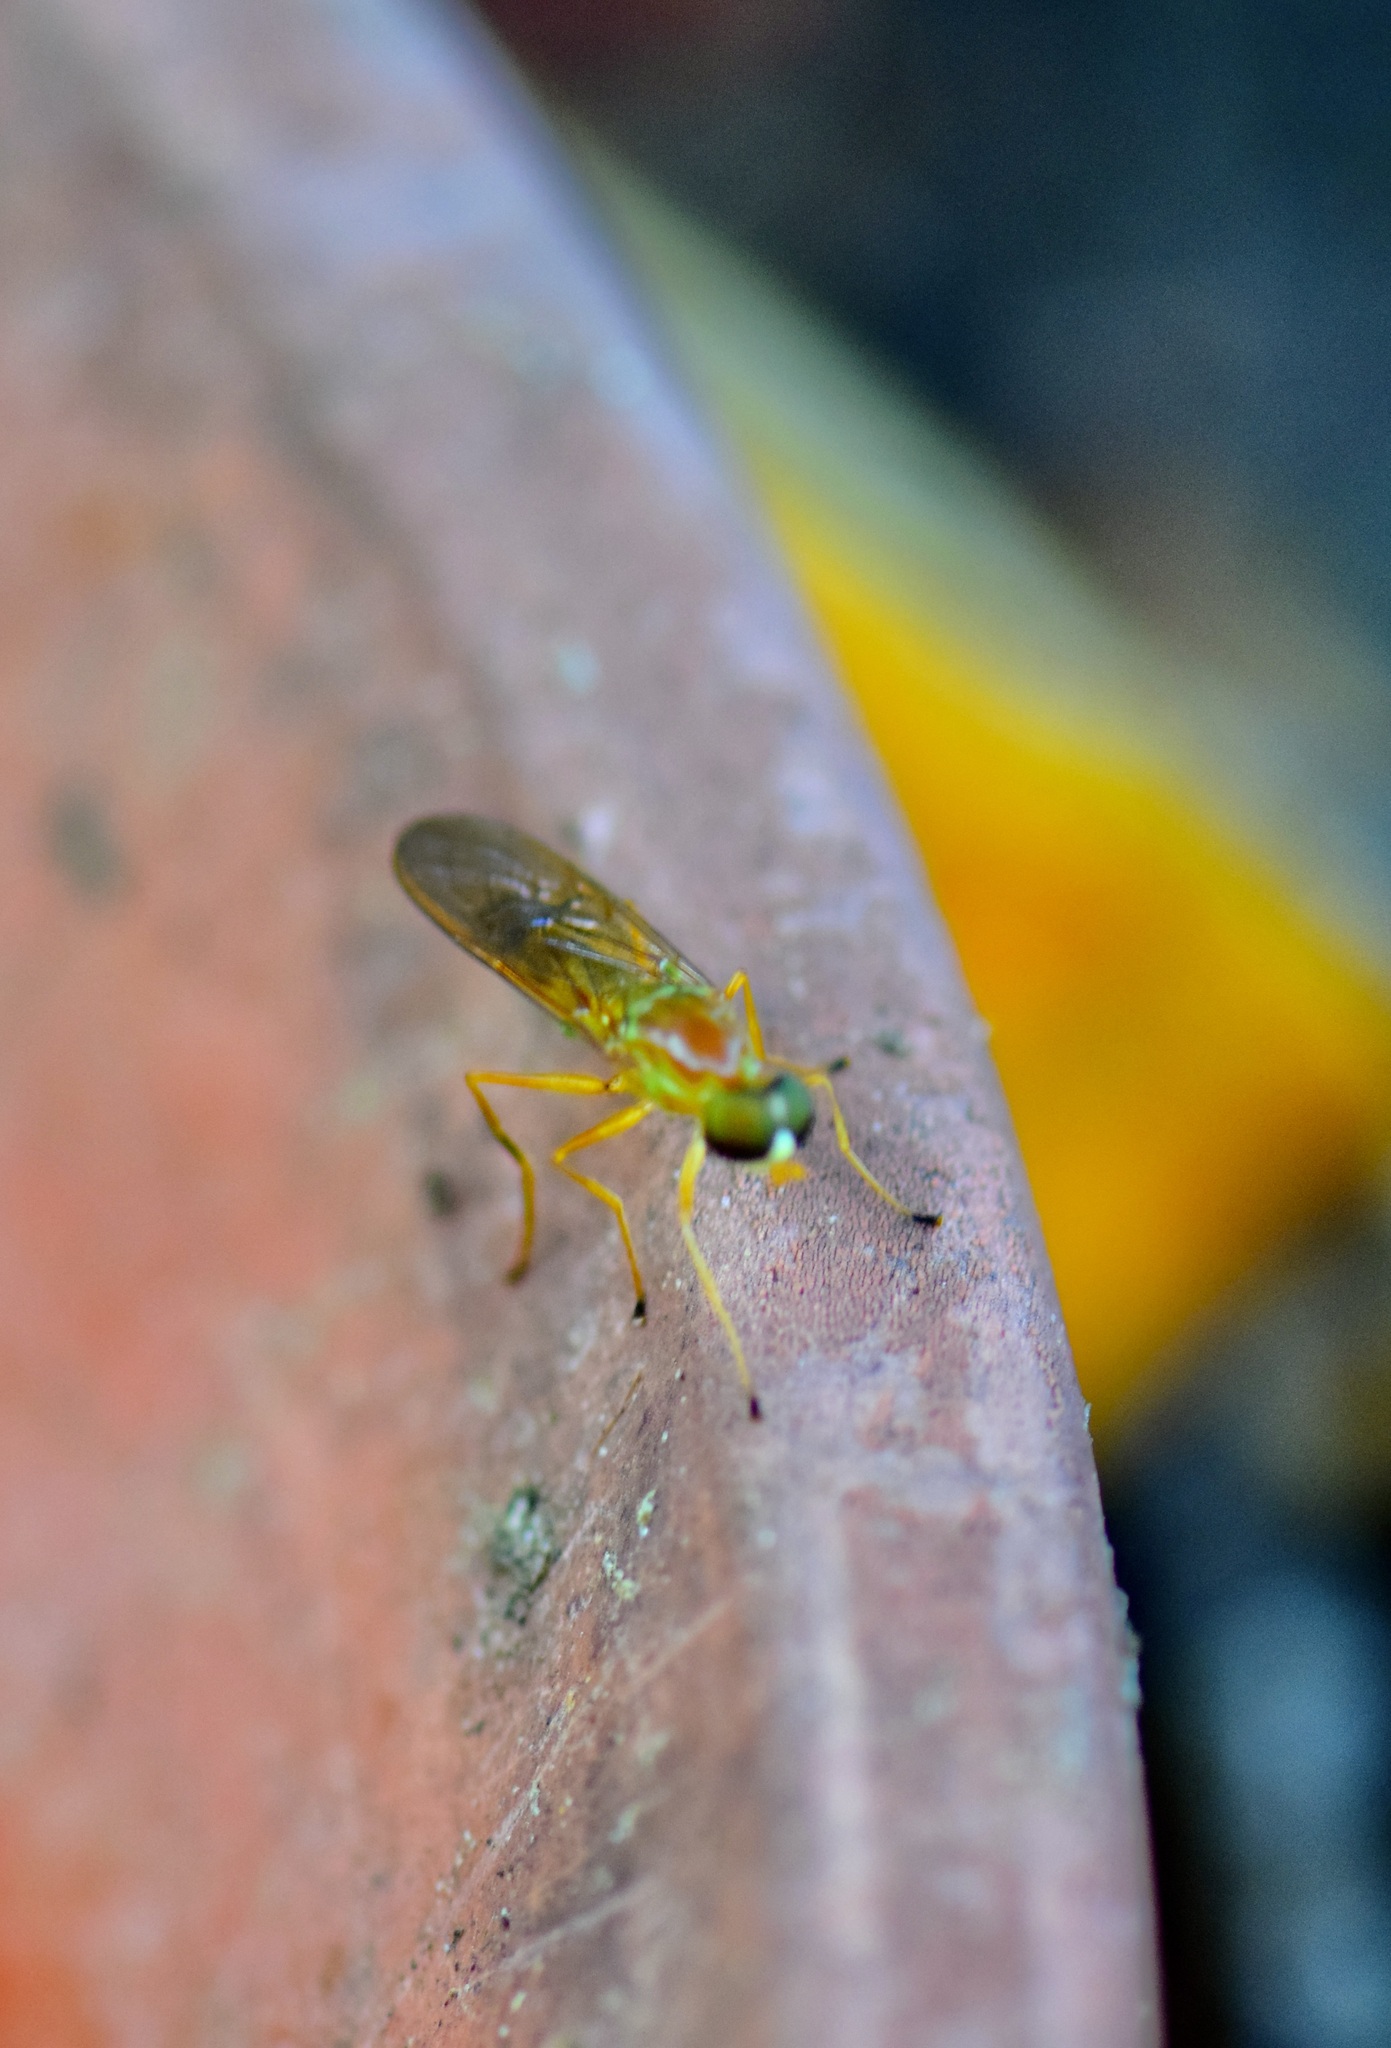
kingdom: Animalia
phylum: Arthropoda
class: Insecta
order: Diptera
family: Stratiomyidae
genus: Ptecticus
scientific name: Ptecticus trivittatus
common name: Compost fly
